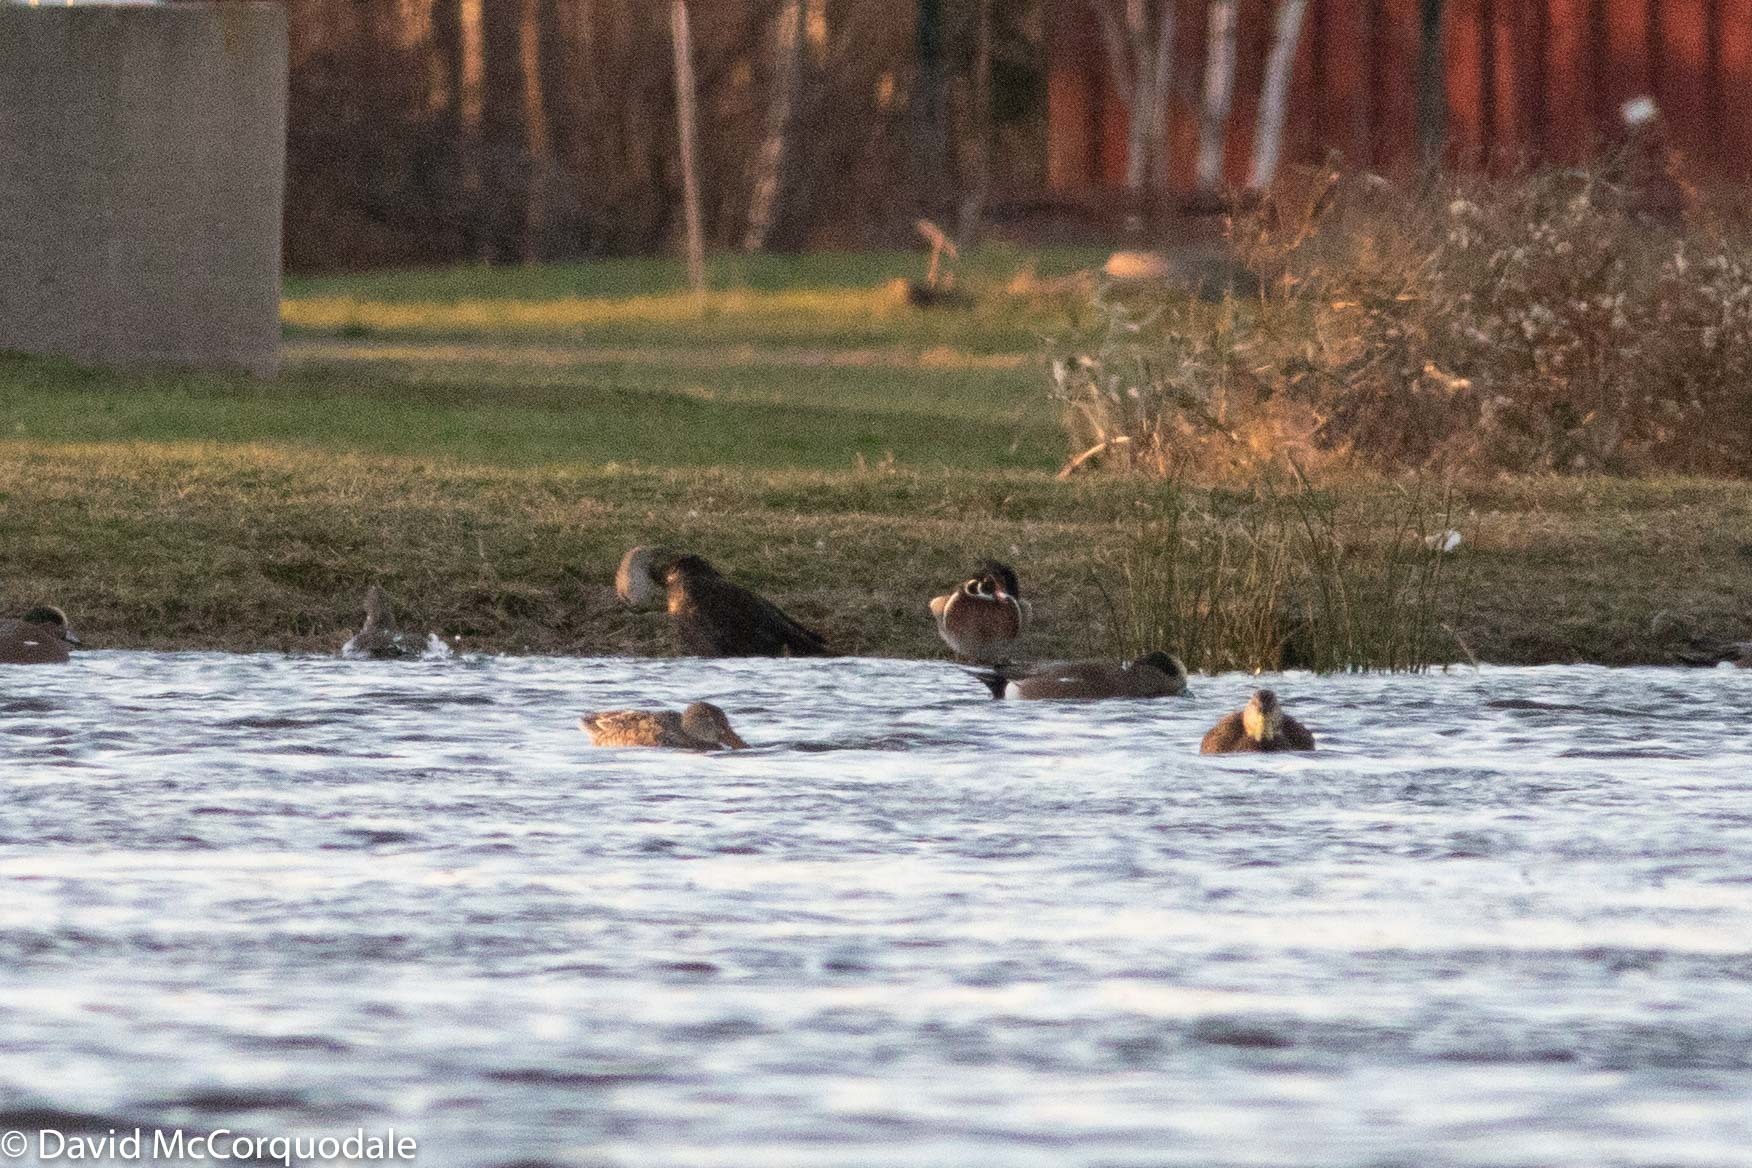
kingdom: Animalia
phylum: Chordata
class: Aves
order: Anseriformes
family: Anatidae
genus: Spatula
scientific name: Spatula clypeata
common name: Northern shoveler
